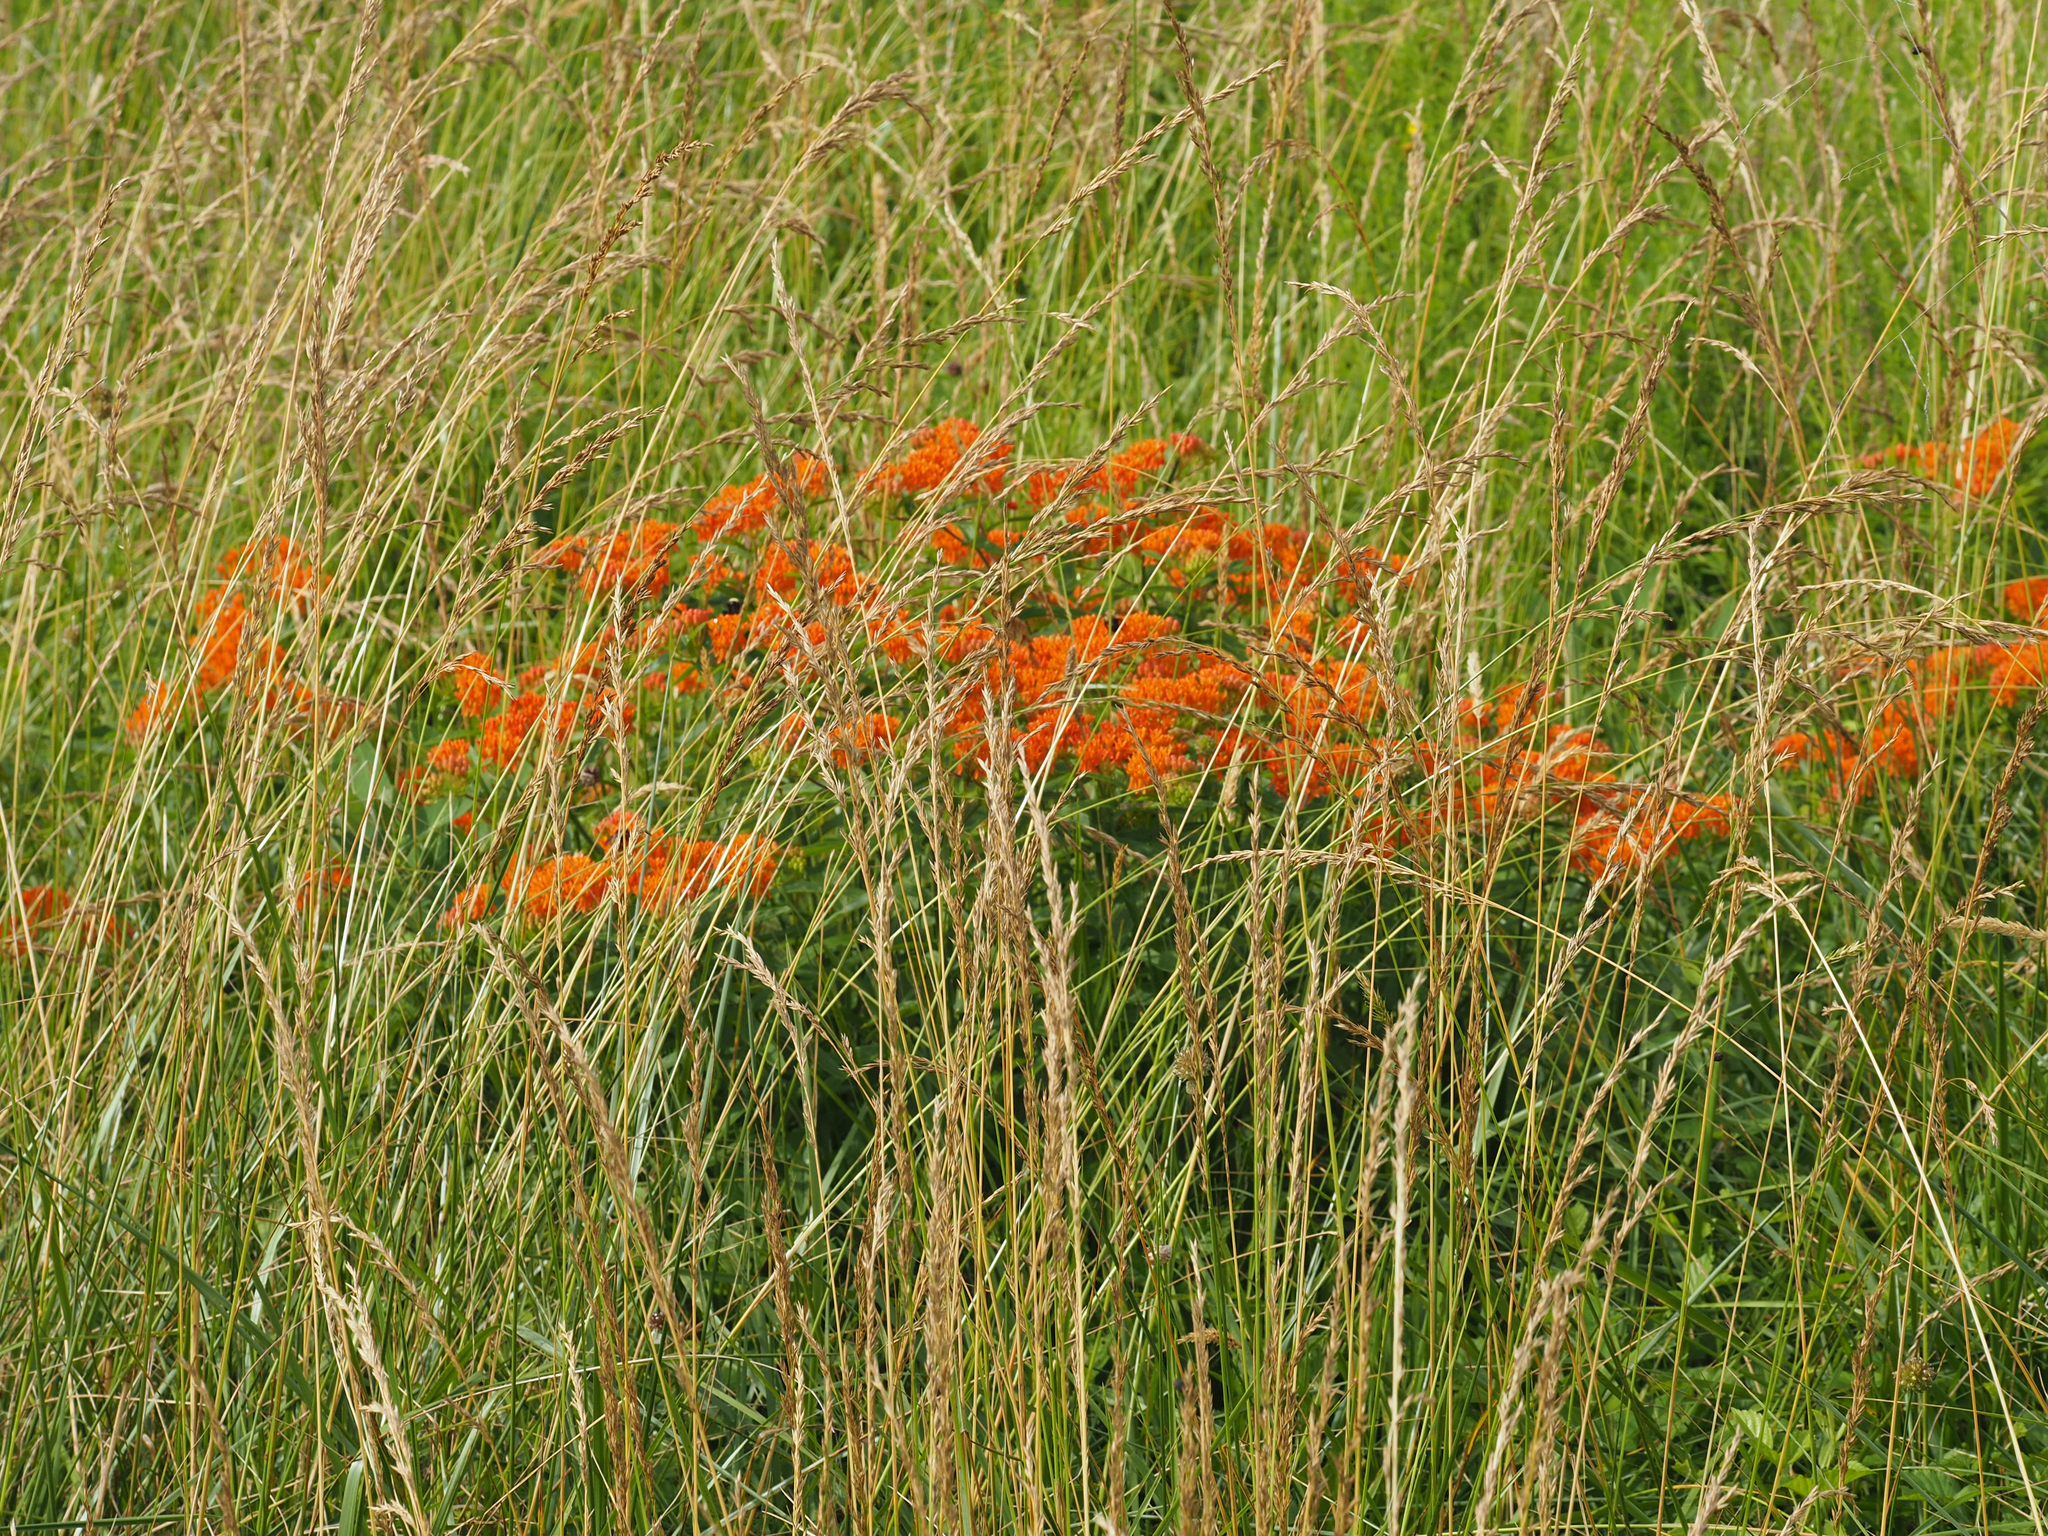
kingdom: Plantae
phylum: Tracheophyta
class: Magnoliopsida
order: Gentianales
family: Apocynaceae
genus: Asclepias
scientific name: Asclepias tuberosa
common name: Butterfly milkweed
